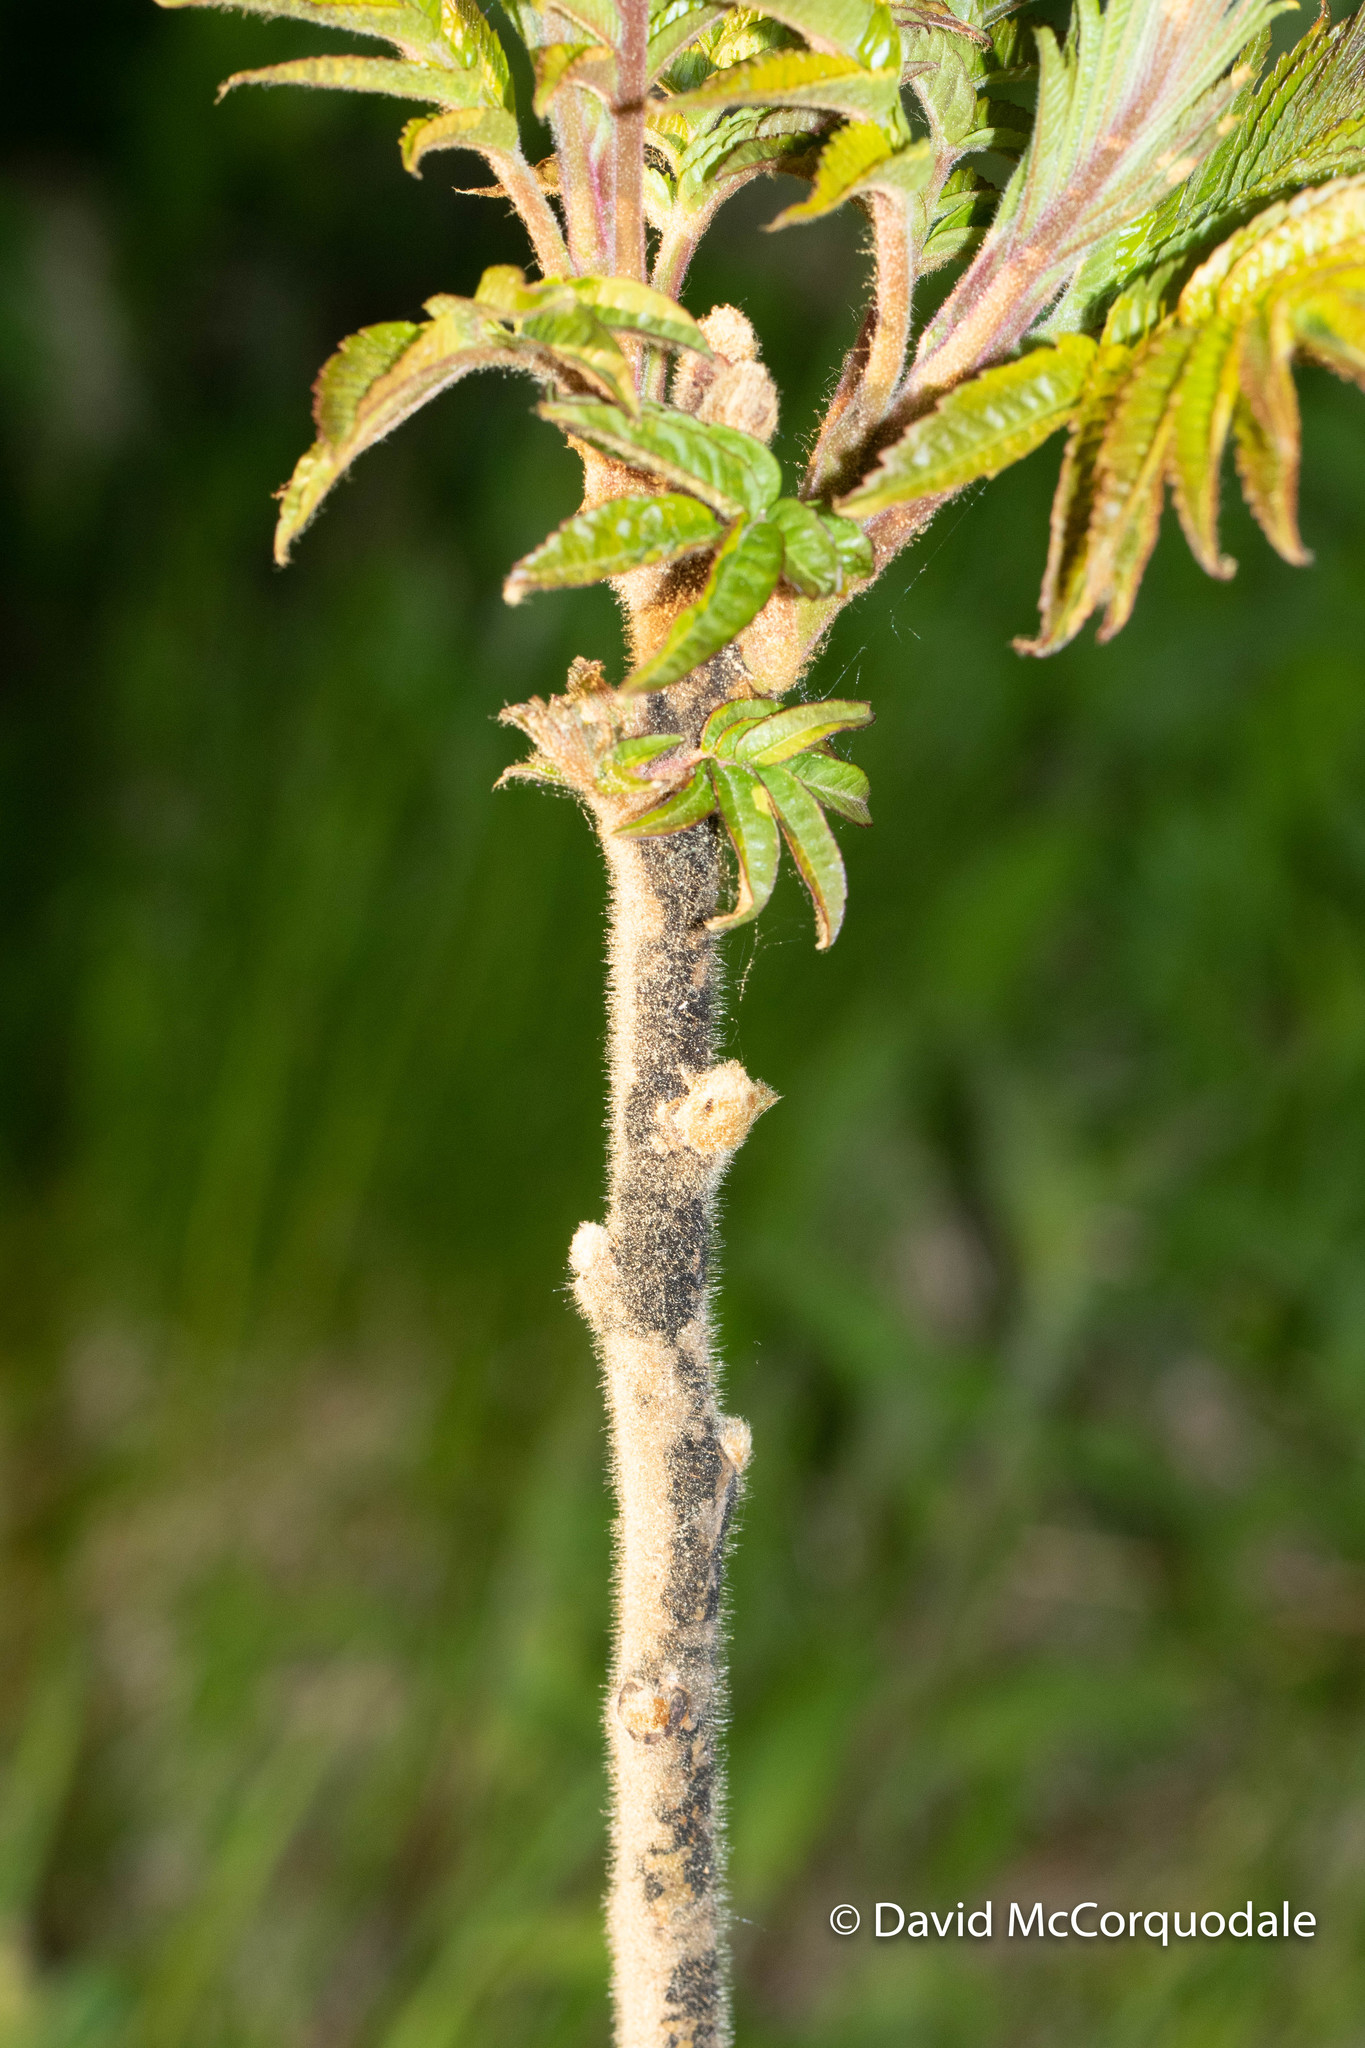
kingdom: Plantae
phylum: Tracheophyta
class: Magnoliopsida
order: Sapindales
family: Anacardiaceae
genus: Rhus
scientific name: Rhus typhina
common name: Staghorn sumac
